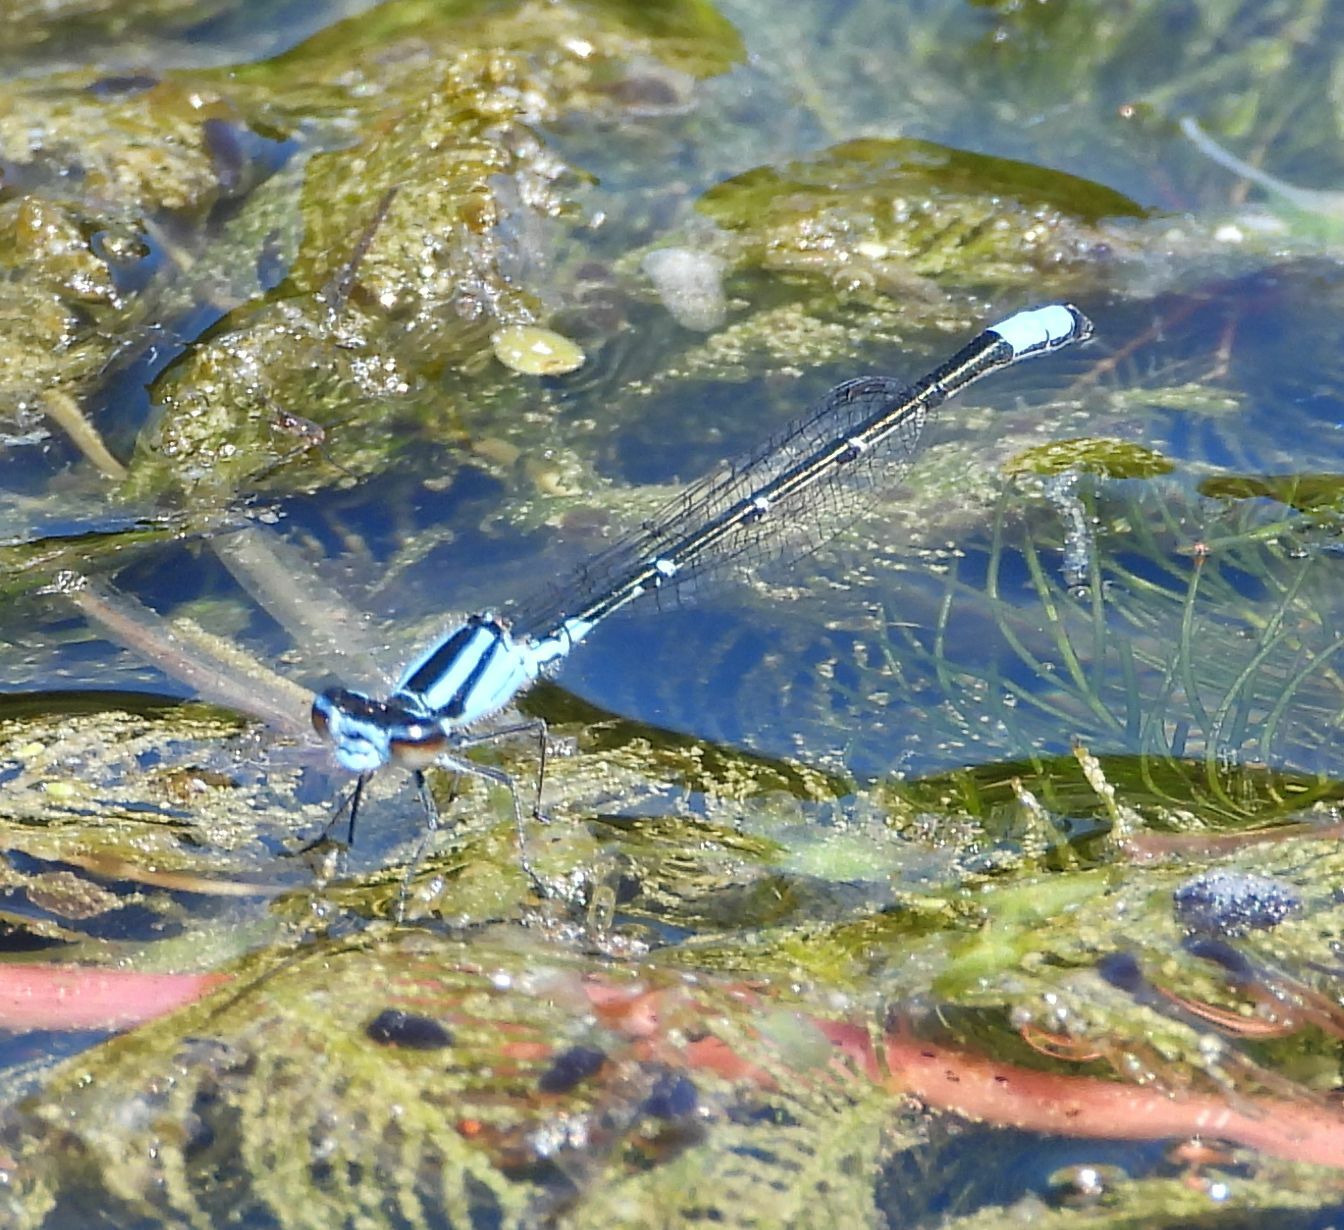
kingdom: Animalia
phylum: Arthropoda
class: Insecta
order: Odonata
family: Coenagrionidae
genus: Enallagma
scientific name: Enallagma geminatum
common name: Skimming bluet
